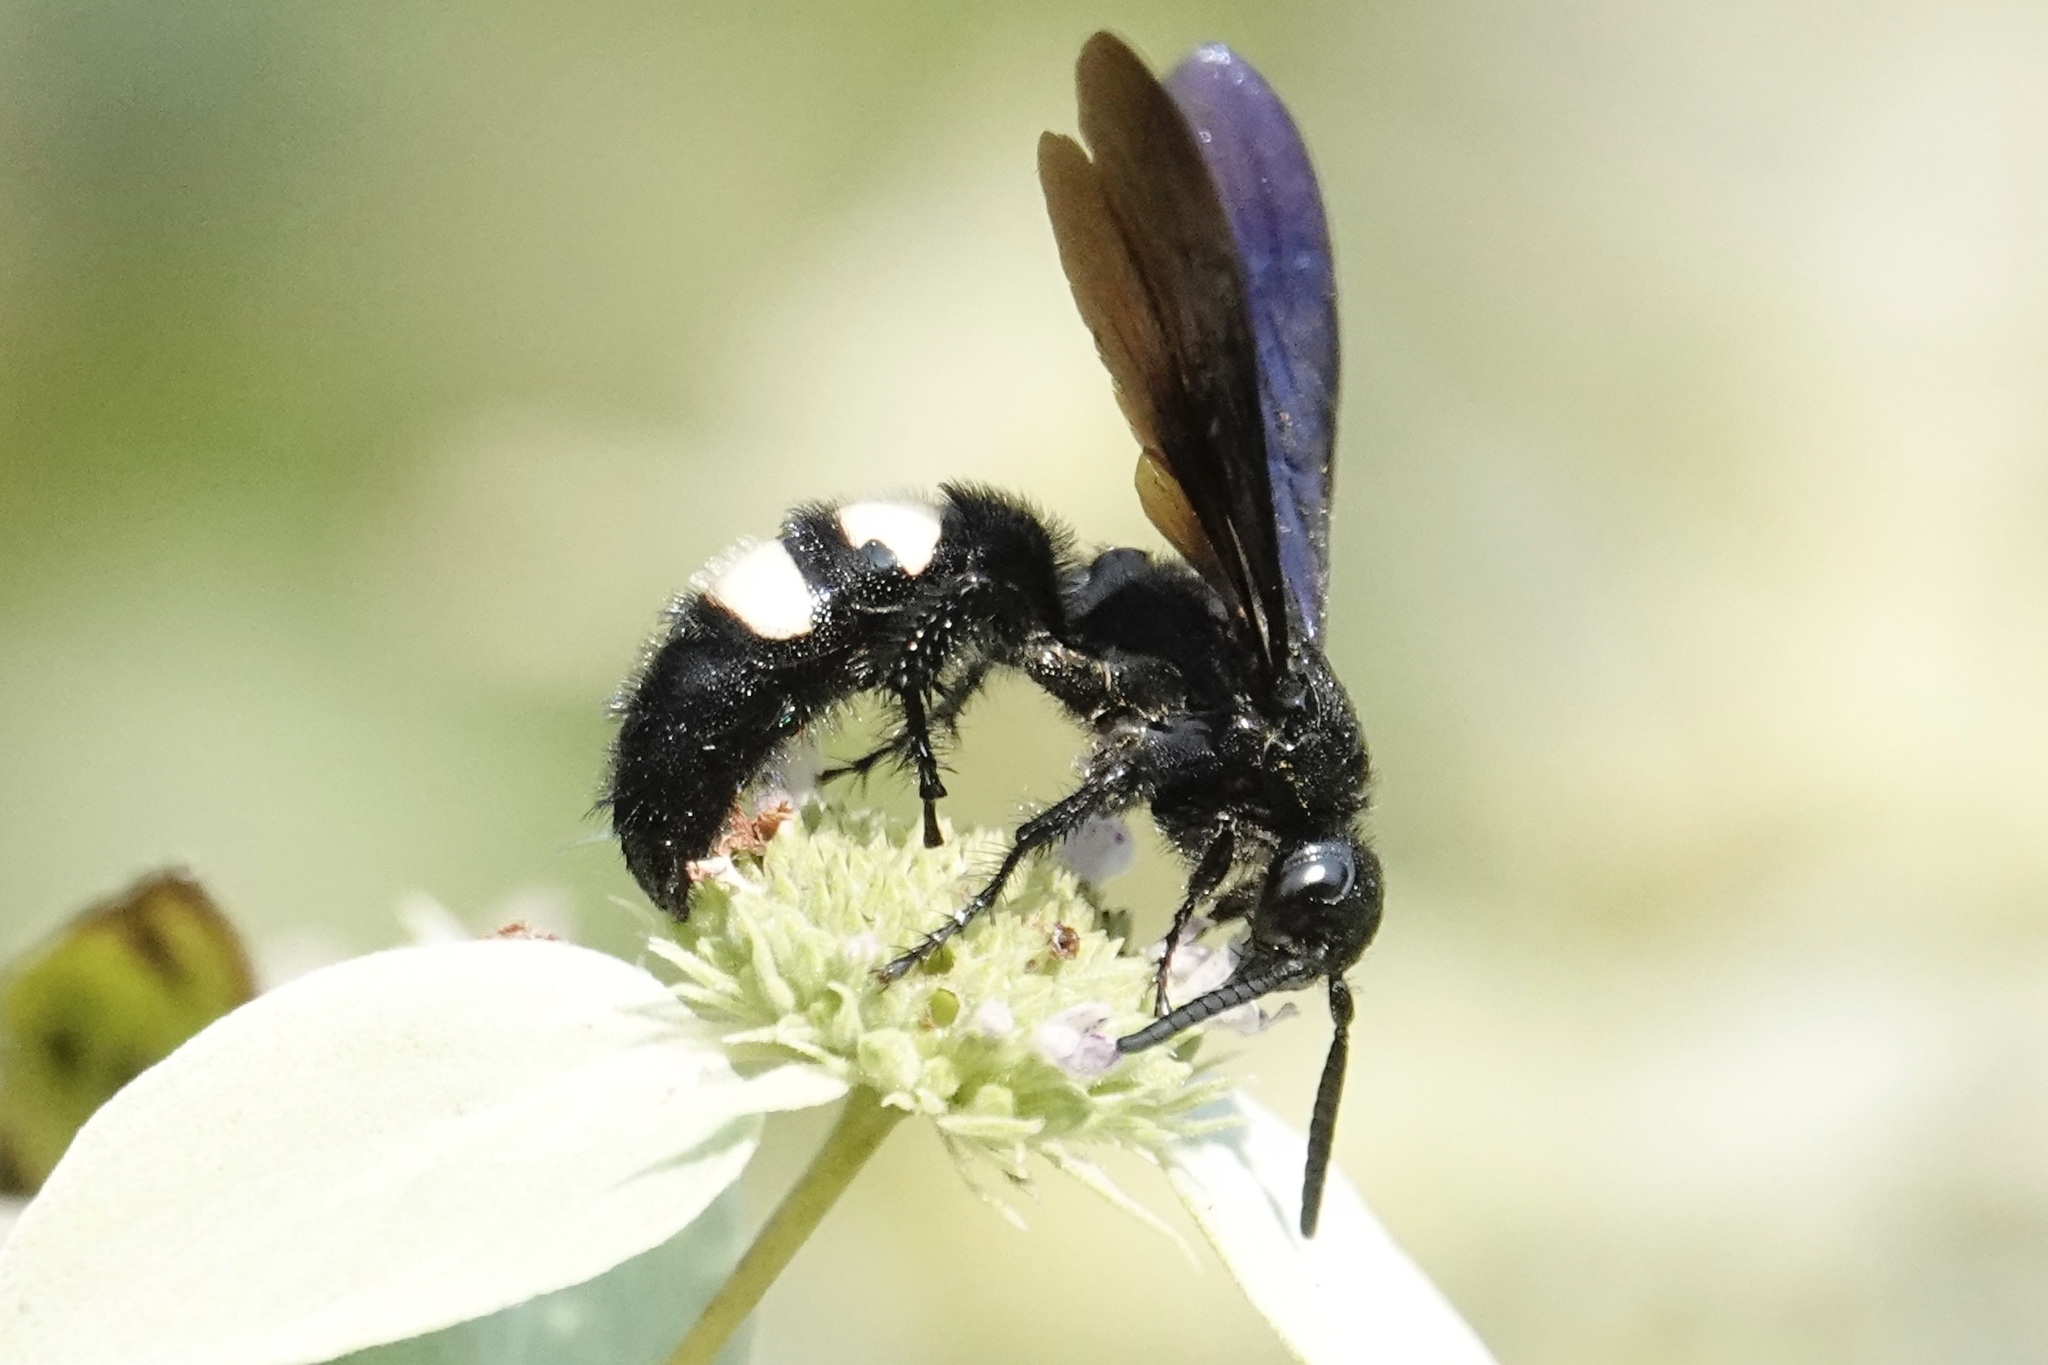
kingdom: Animalia
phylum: Arthropoda
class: Insecta
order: Hymenoptera
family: Scoliidae
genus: Scolia
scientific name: Scolia bicincta
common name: Double-banded scoliid wasp
